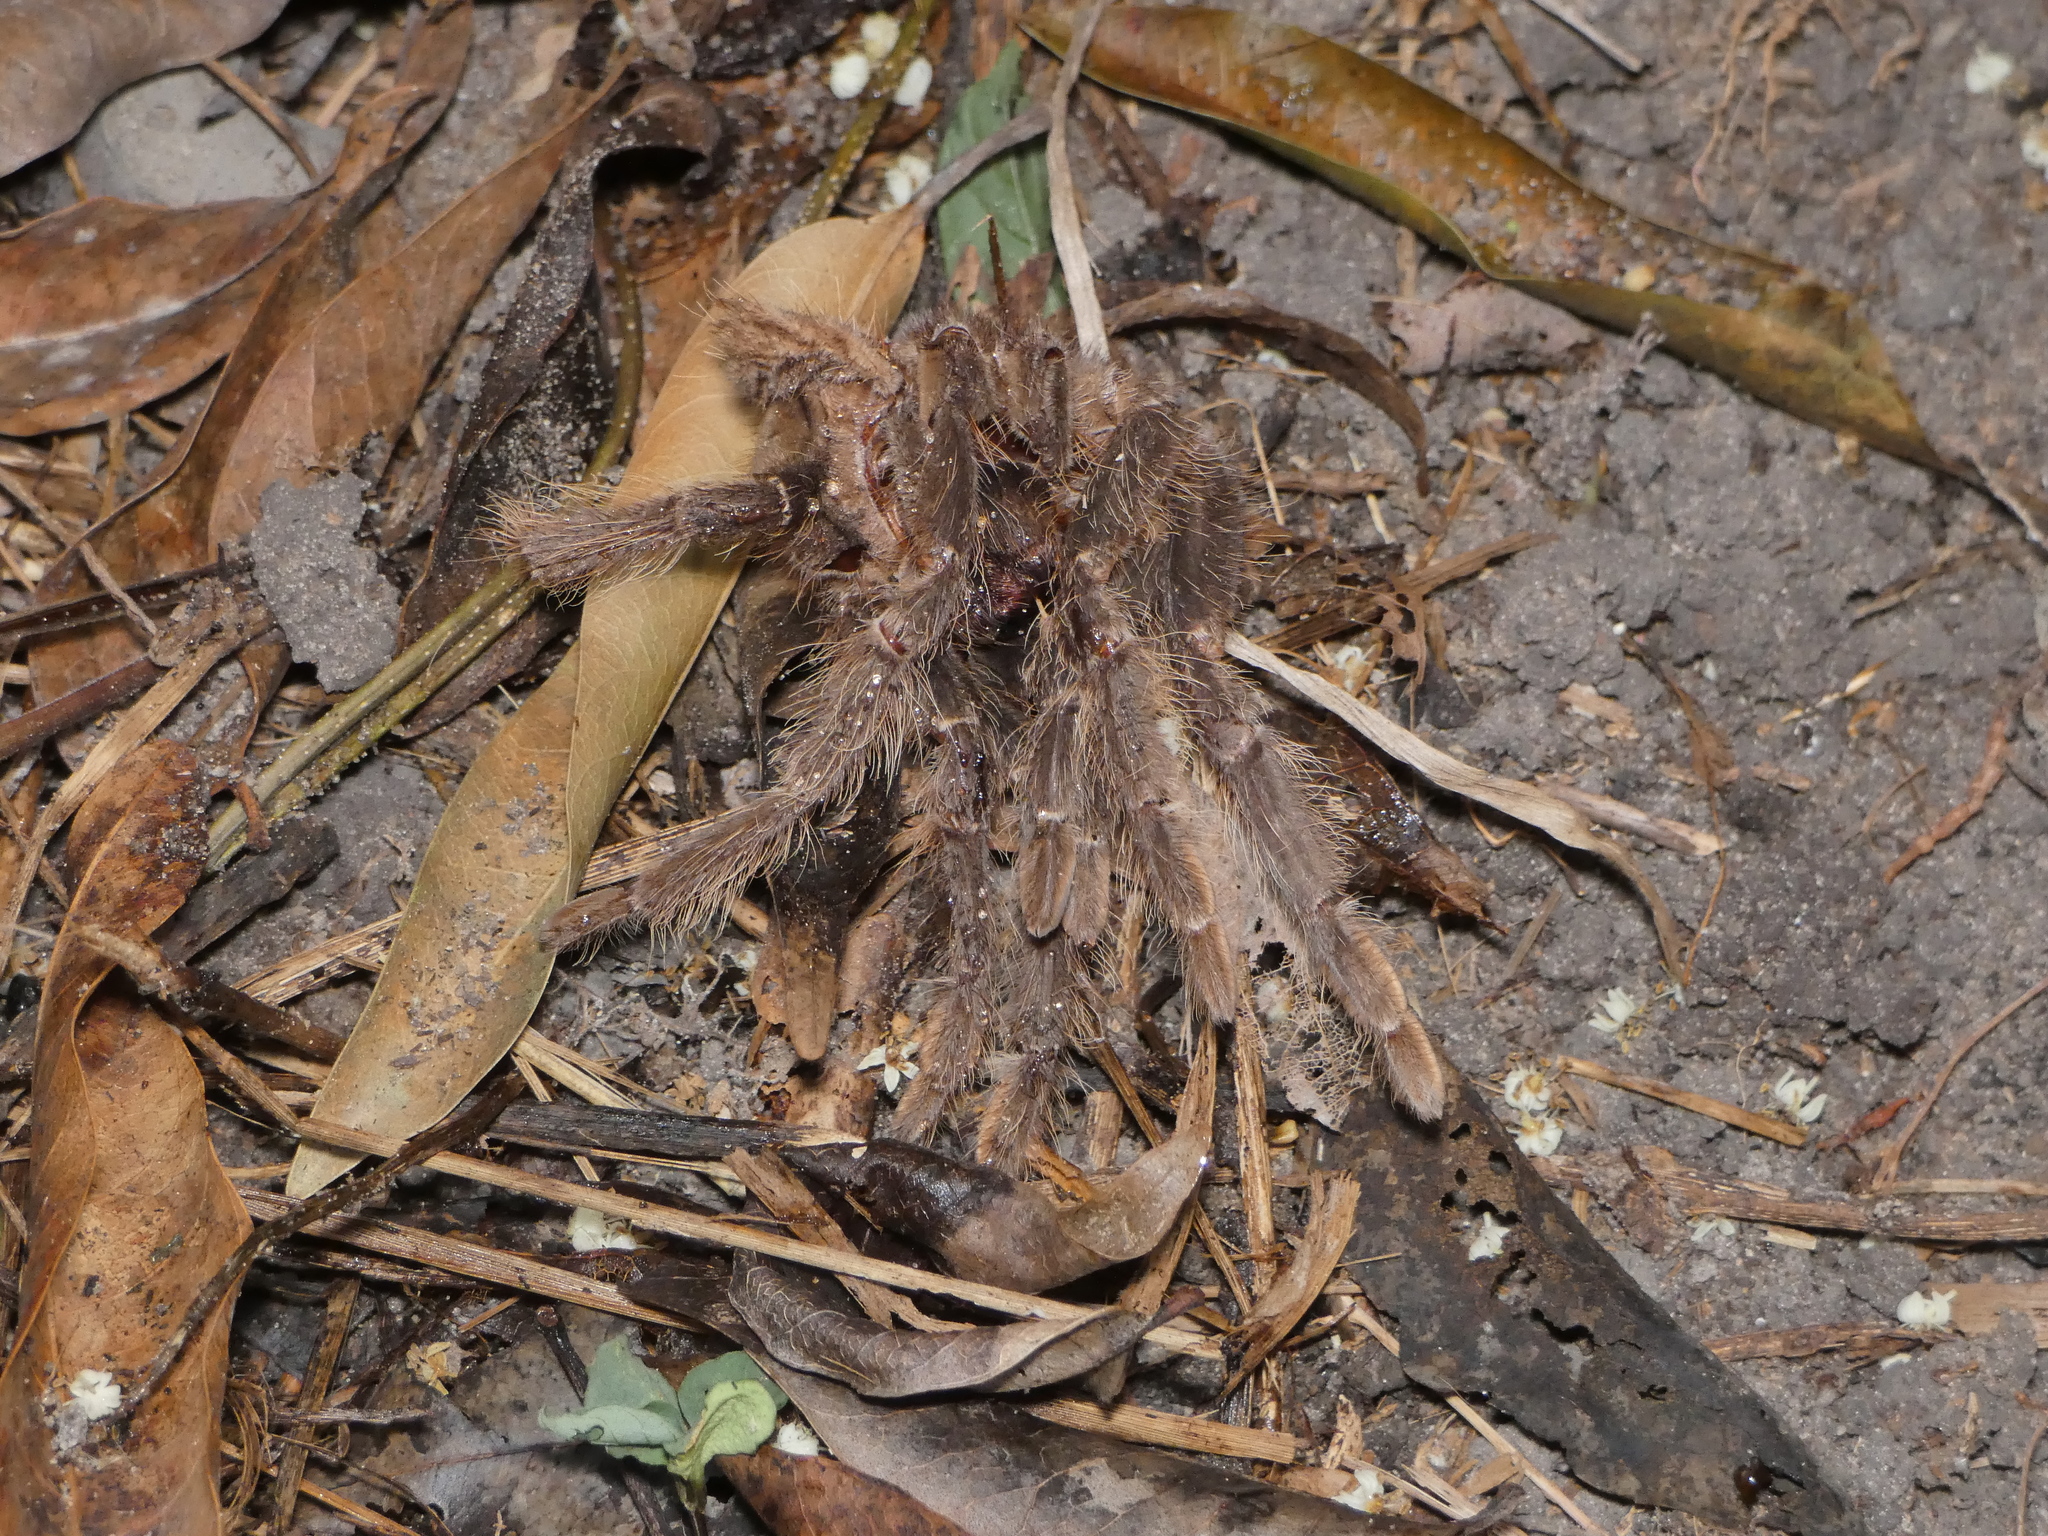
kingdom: Animalia
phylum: Arthropoda
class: Arachnida
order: Araneae
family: Theraphosidae
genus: Lasiodora
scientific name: Lasiodora parahybana
